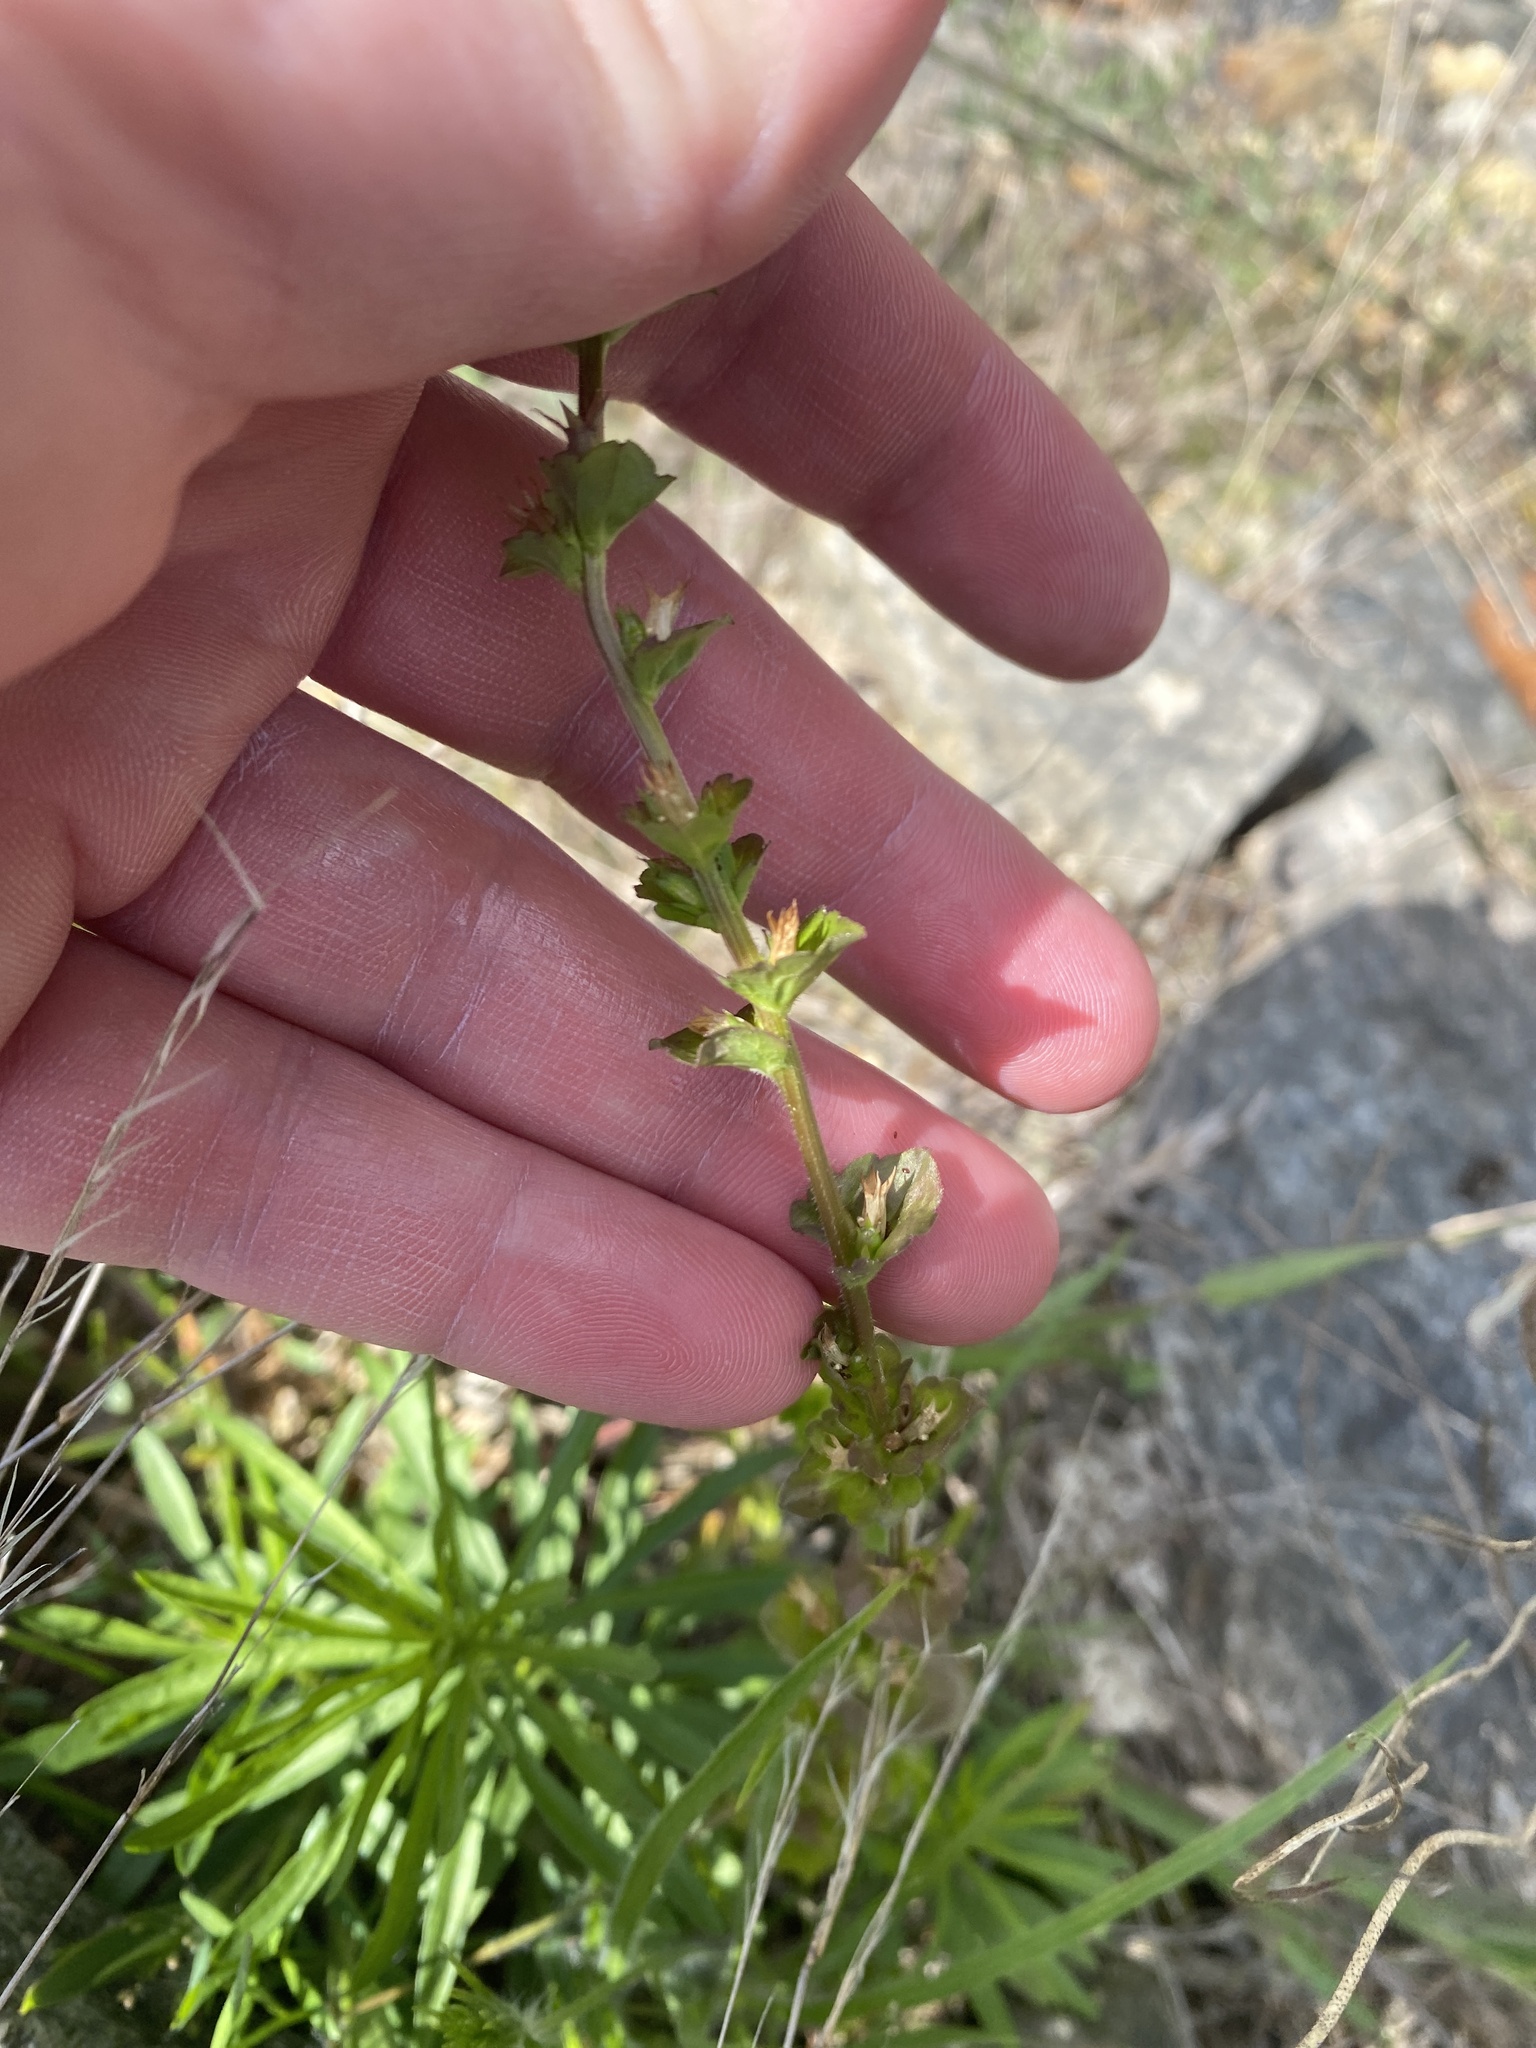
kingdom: Plantae
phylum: Tracheophyta
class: Magnoliopsida
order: Asterales
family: Campanulaceae
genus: Triodanis
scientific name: Triodanis perfoliata
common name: Clasping venus' looking-glass
